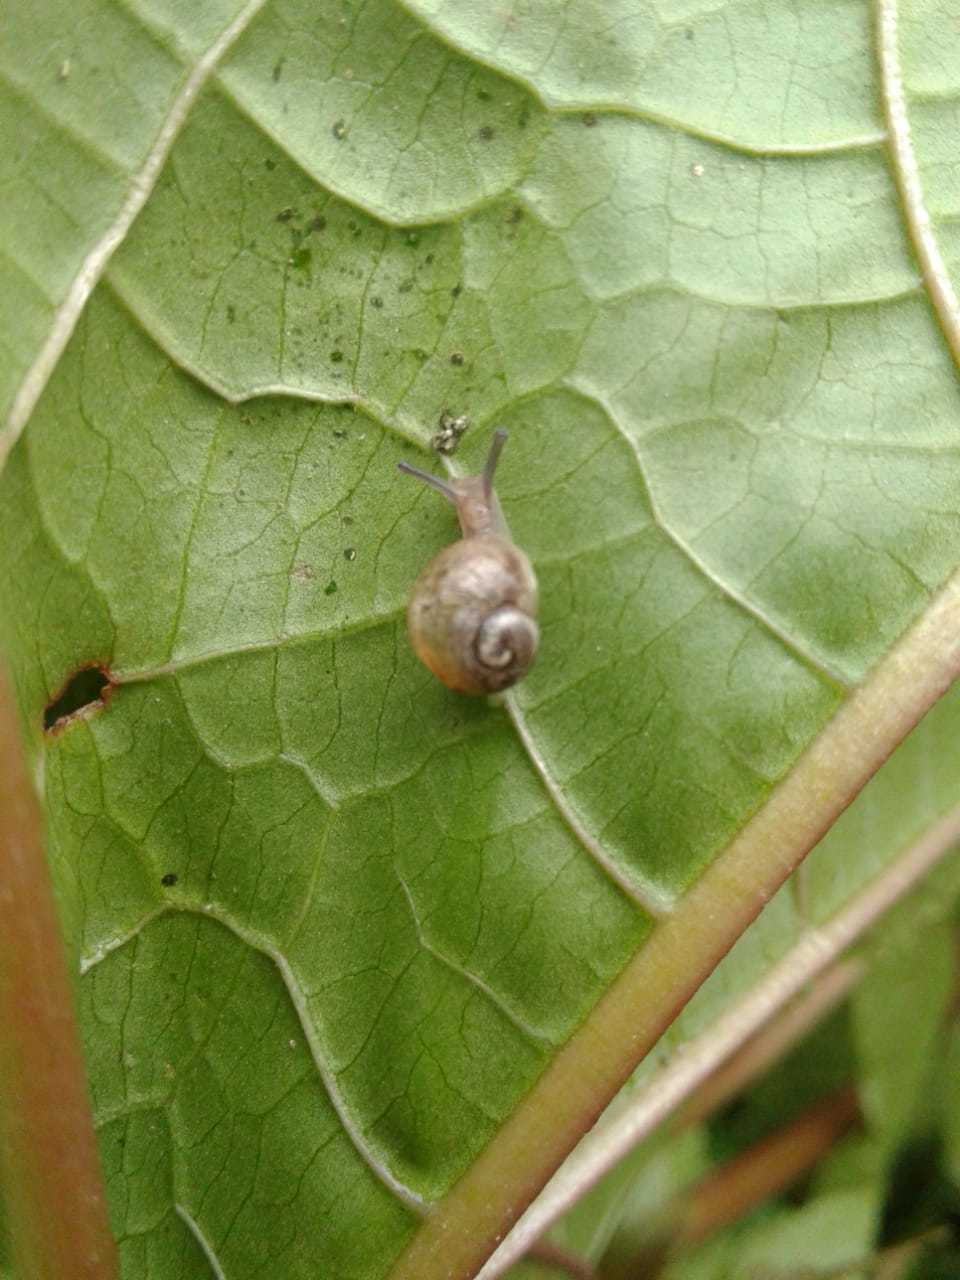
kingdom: Animalia
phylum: Mollusca
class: Gastropoda
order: Stylommatophora
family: Helicidae
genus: Cornu
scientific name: Cornu aspersum
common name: Brown garden snail
